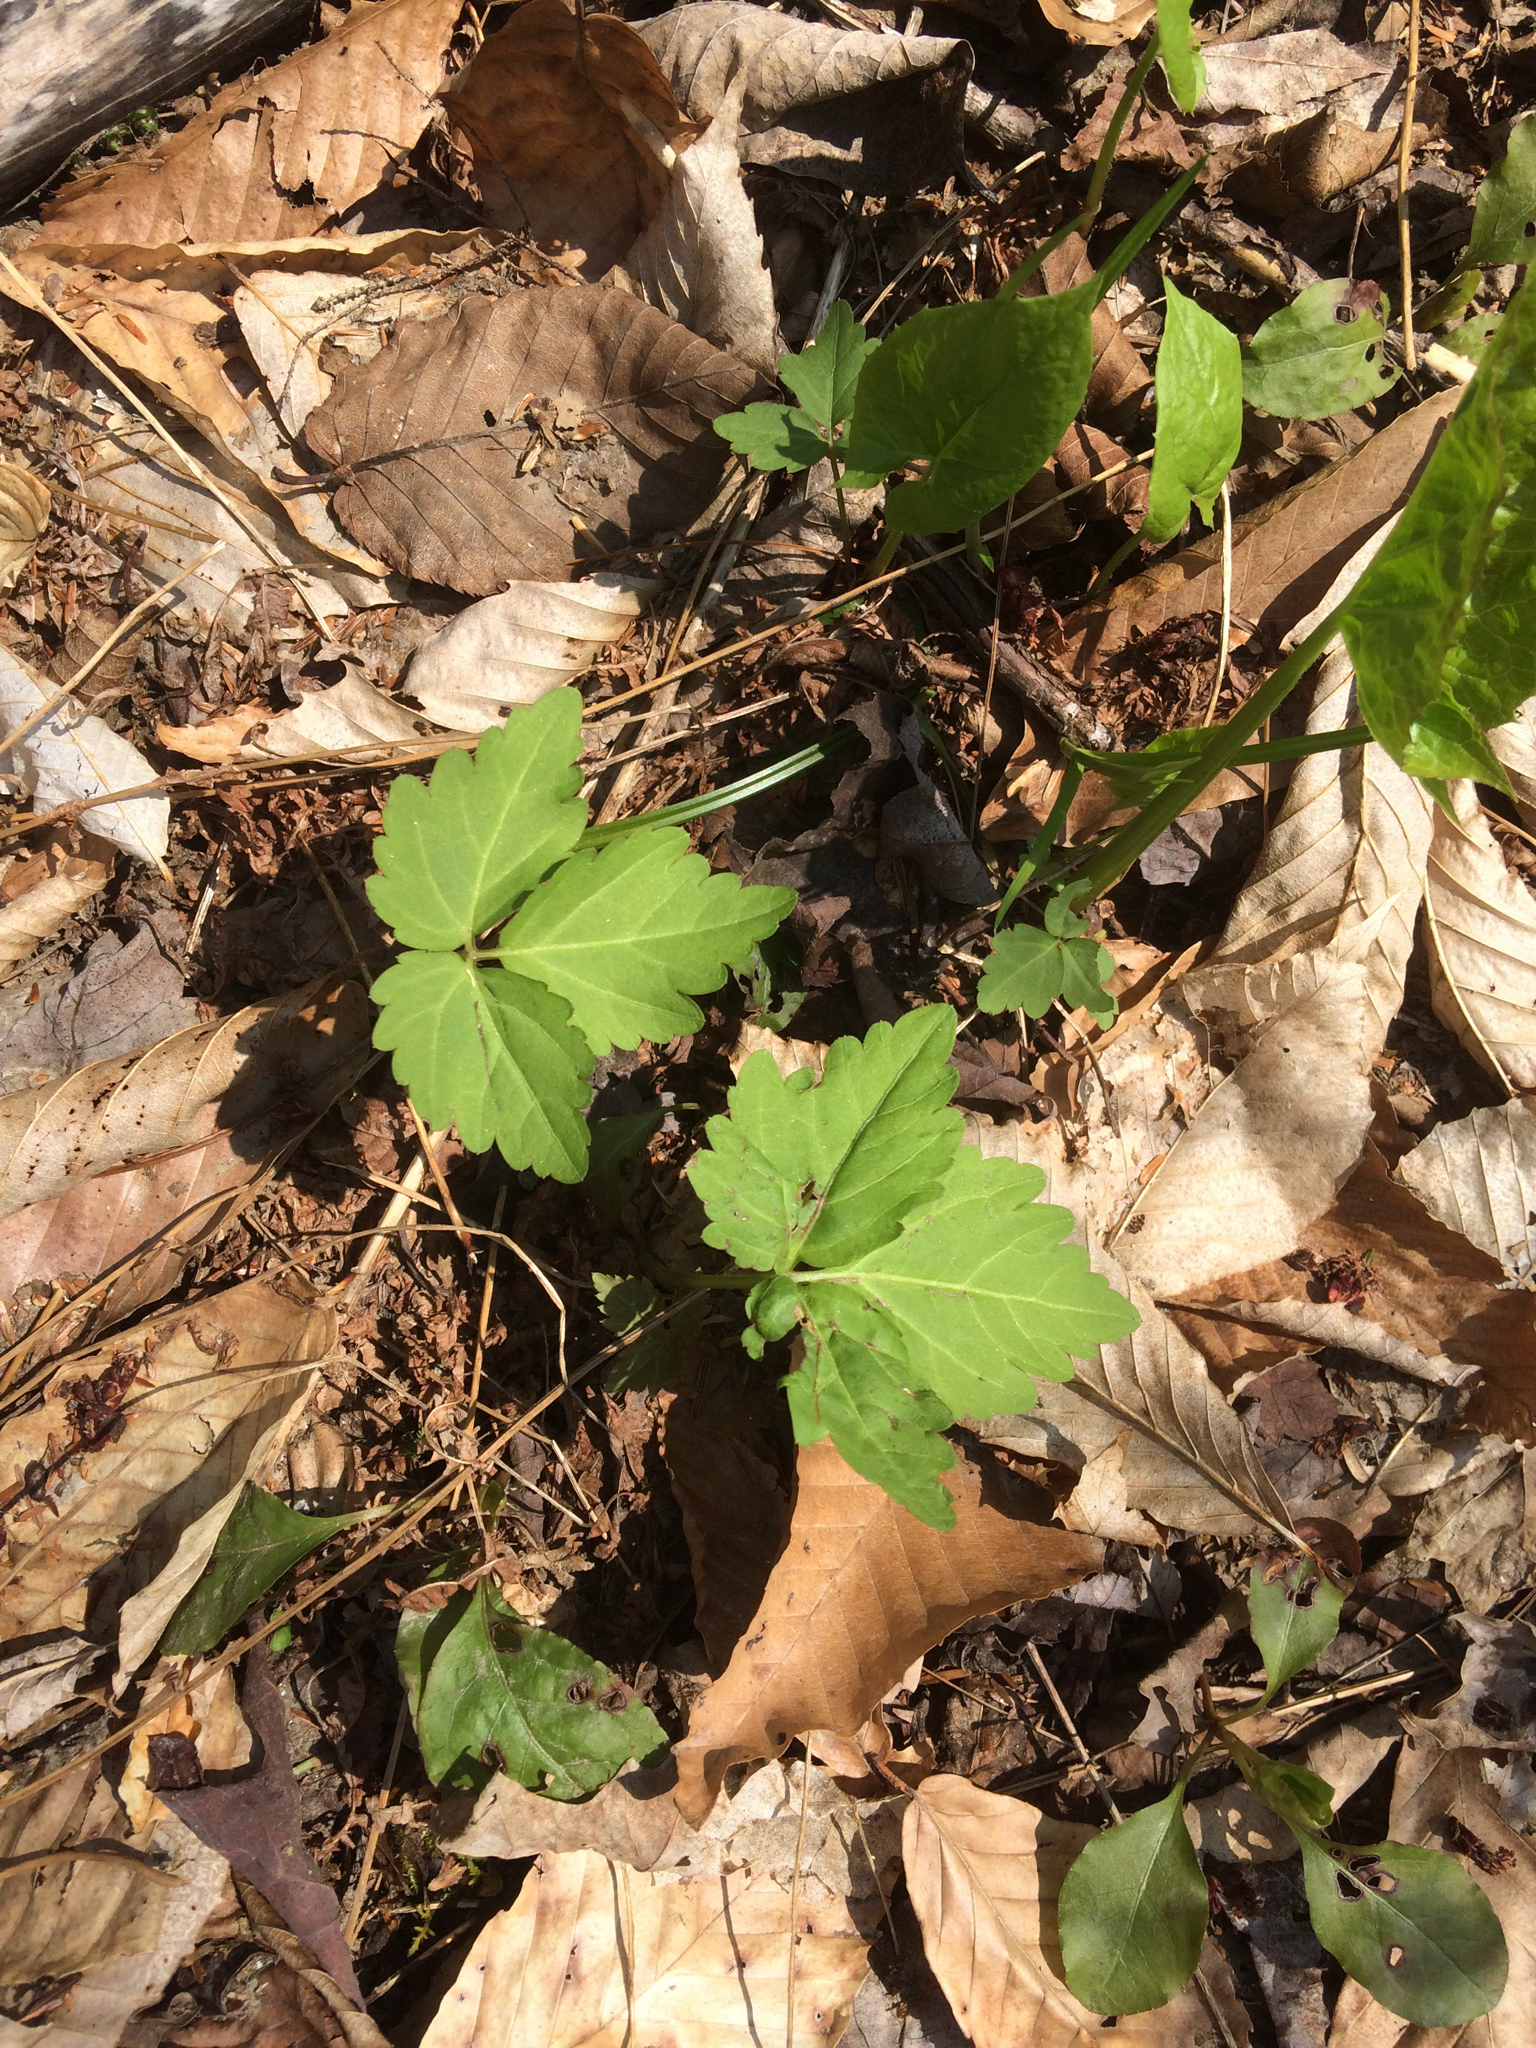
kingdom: Plantae
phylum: Tracheophyta
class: Magnoliopsida
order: Brassicales
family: Brassicaceae
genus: Cardamine
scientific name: Cardamine diphylla
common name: Broad-leaved toothwort
